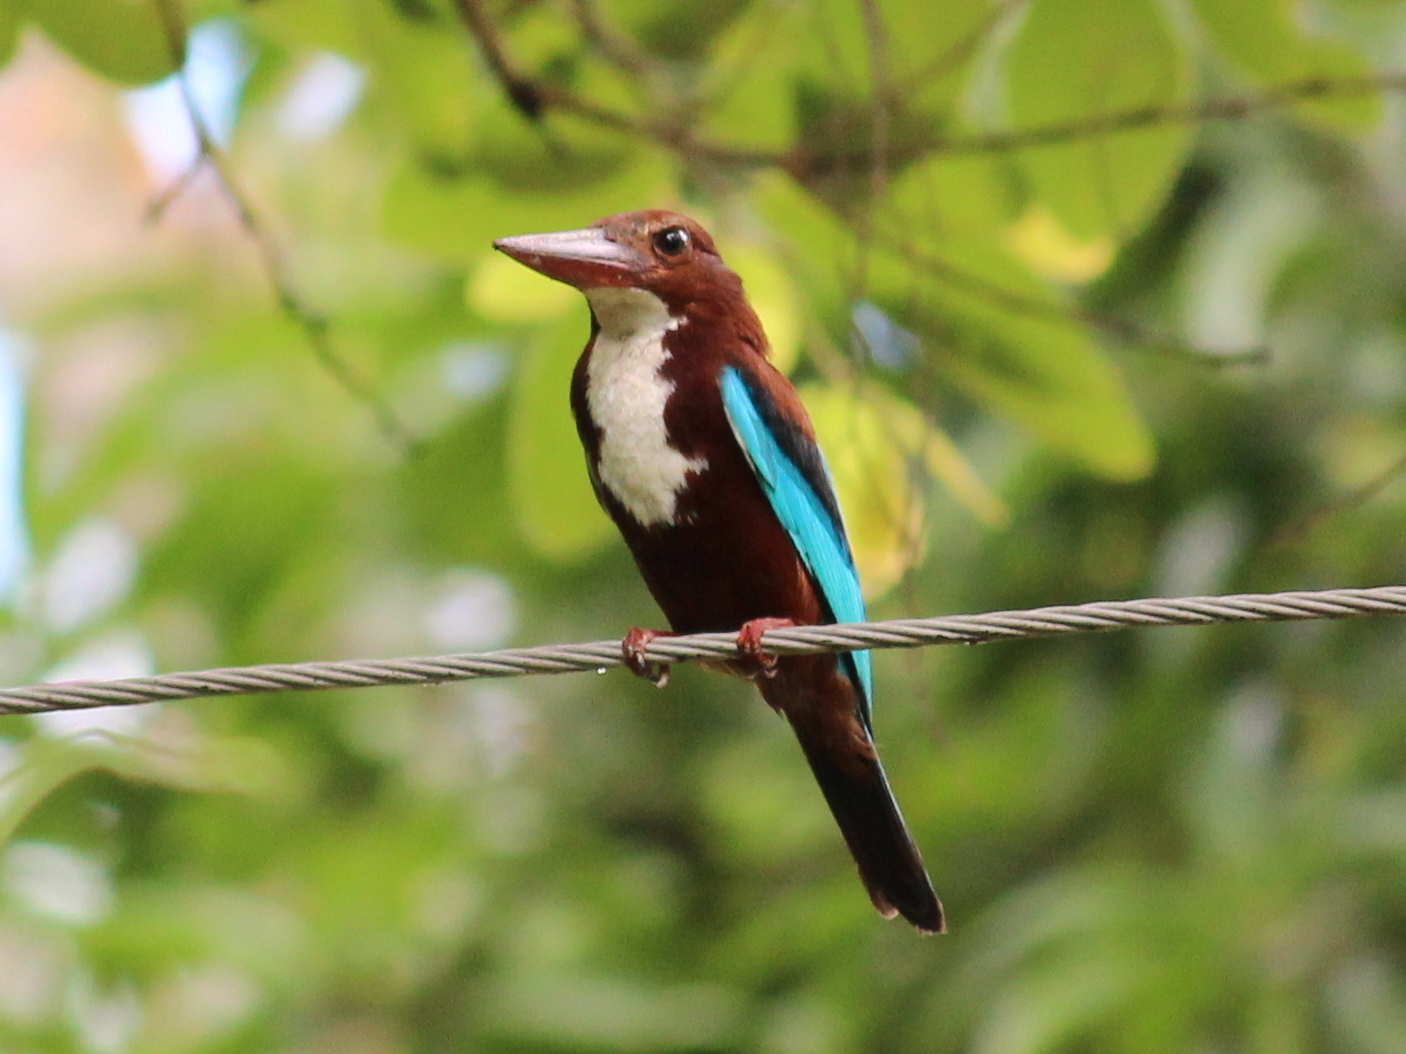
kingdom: Animalia
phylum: Chordata
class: Aves
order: Coraciiformes
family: Alcedinidae
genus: Halcyon
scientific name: Halcyon smyrnensis
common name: White-throated kingfisher
